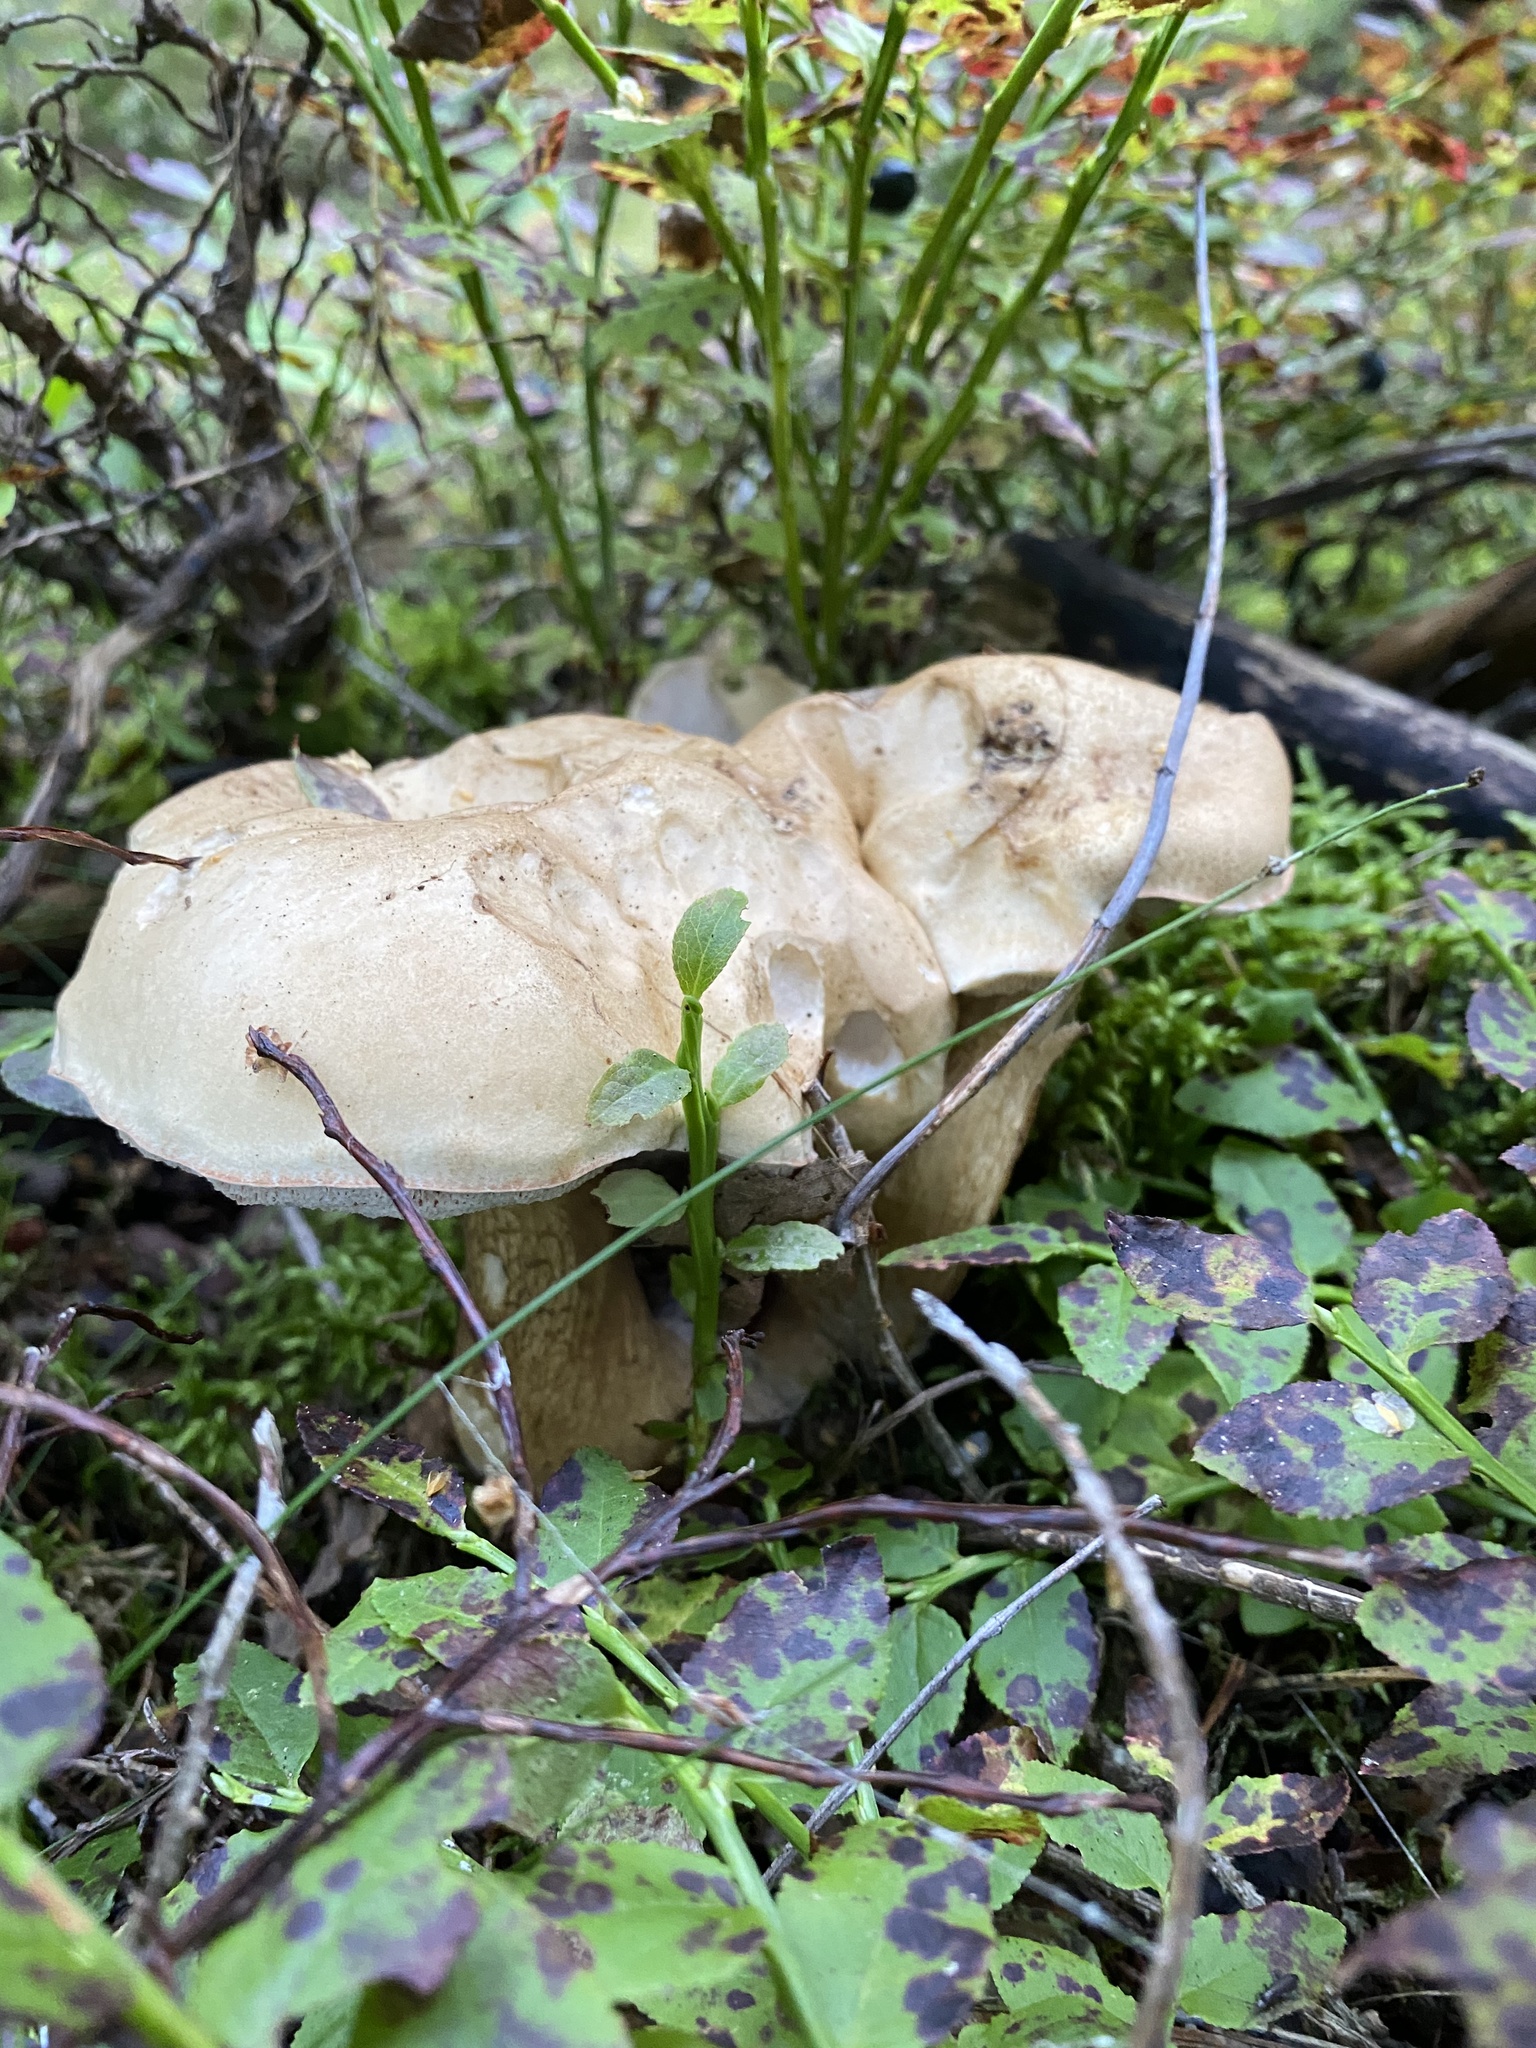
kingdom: Fungi
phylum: Basidiomycota
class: Agaricomycetes
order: Boletales
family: Boletaceae
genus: Tylopilus
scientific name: Tylopilus felleus
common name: Bitter bolete
